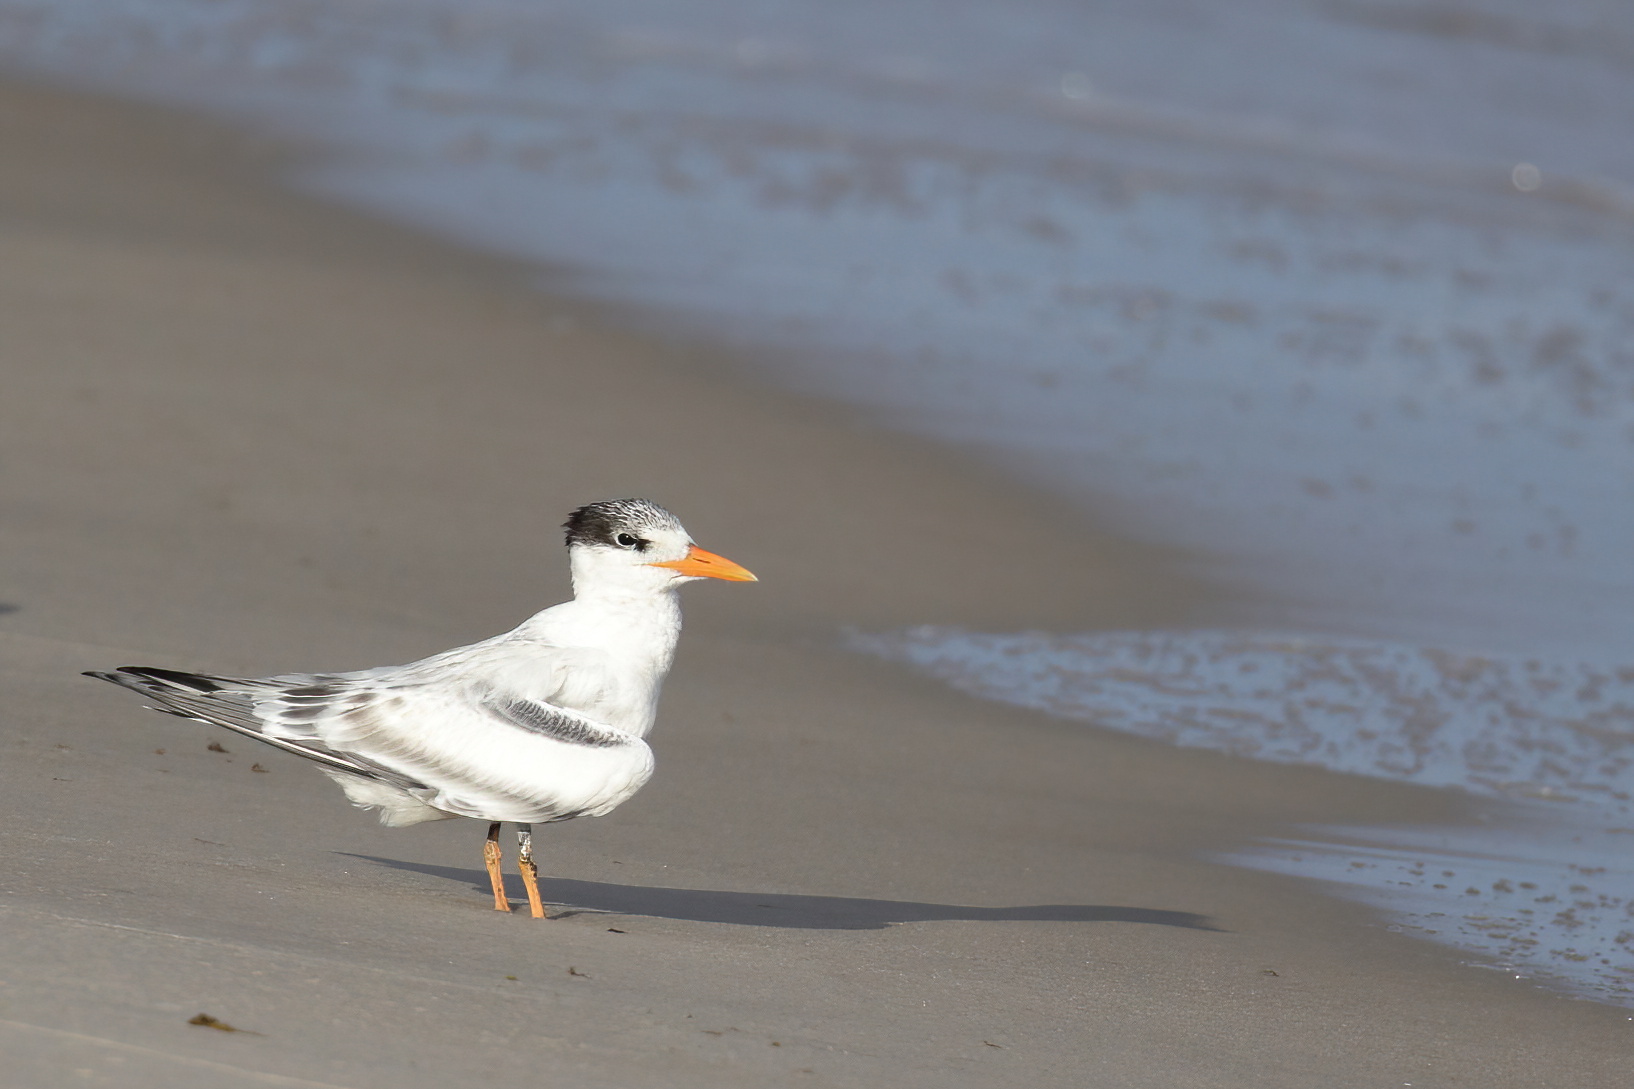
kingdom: Animalia
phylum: Chordata
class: Aves
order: Charadriiformes
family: Laridae
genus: Thalasseus
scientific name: Thalasseus maximus
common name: Royal tern
